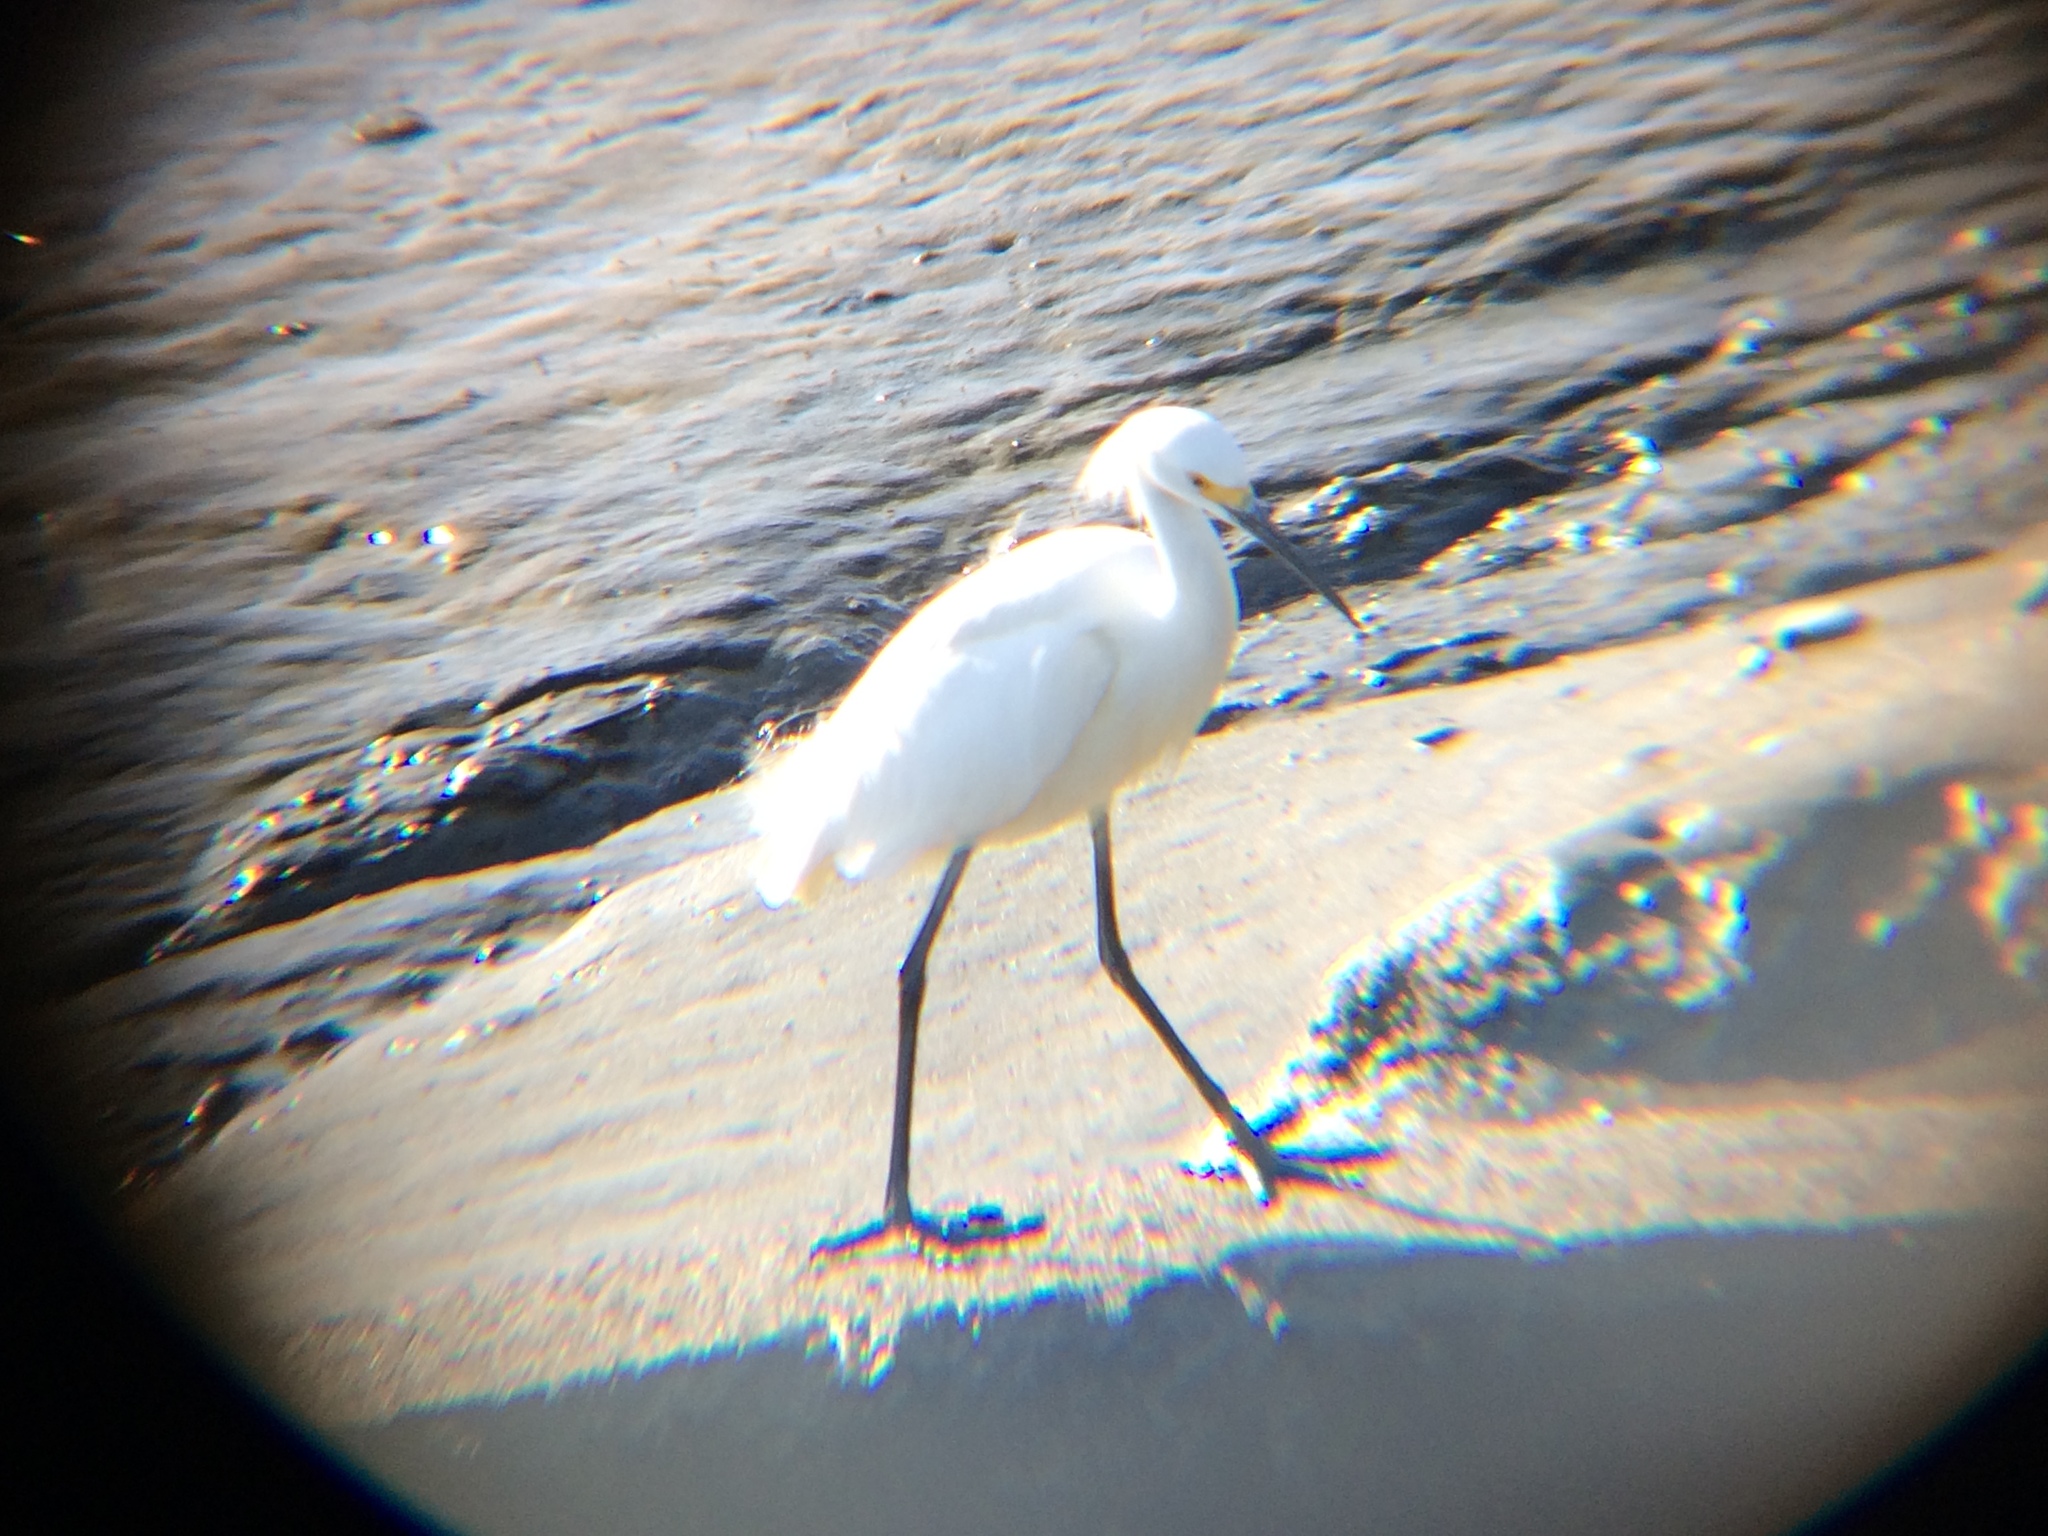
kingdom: Animalia
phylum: Chordata
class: Aves
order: Pelecaniformes
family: Ardeidae
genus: Egretta
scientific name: Egretta thula
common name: Snowy egret
